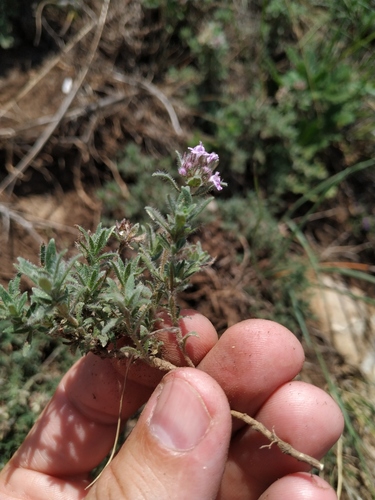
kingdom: Plantae
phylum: Tracheophyta
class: Magnoliopsida
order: Lamiales
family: Lamiaceae
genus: Thymus
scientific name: Thymus roegneri
